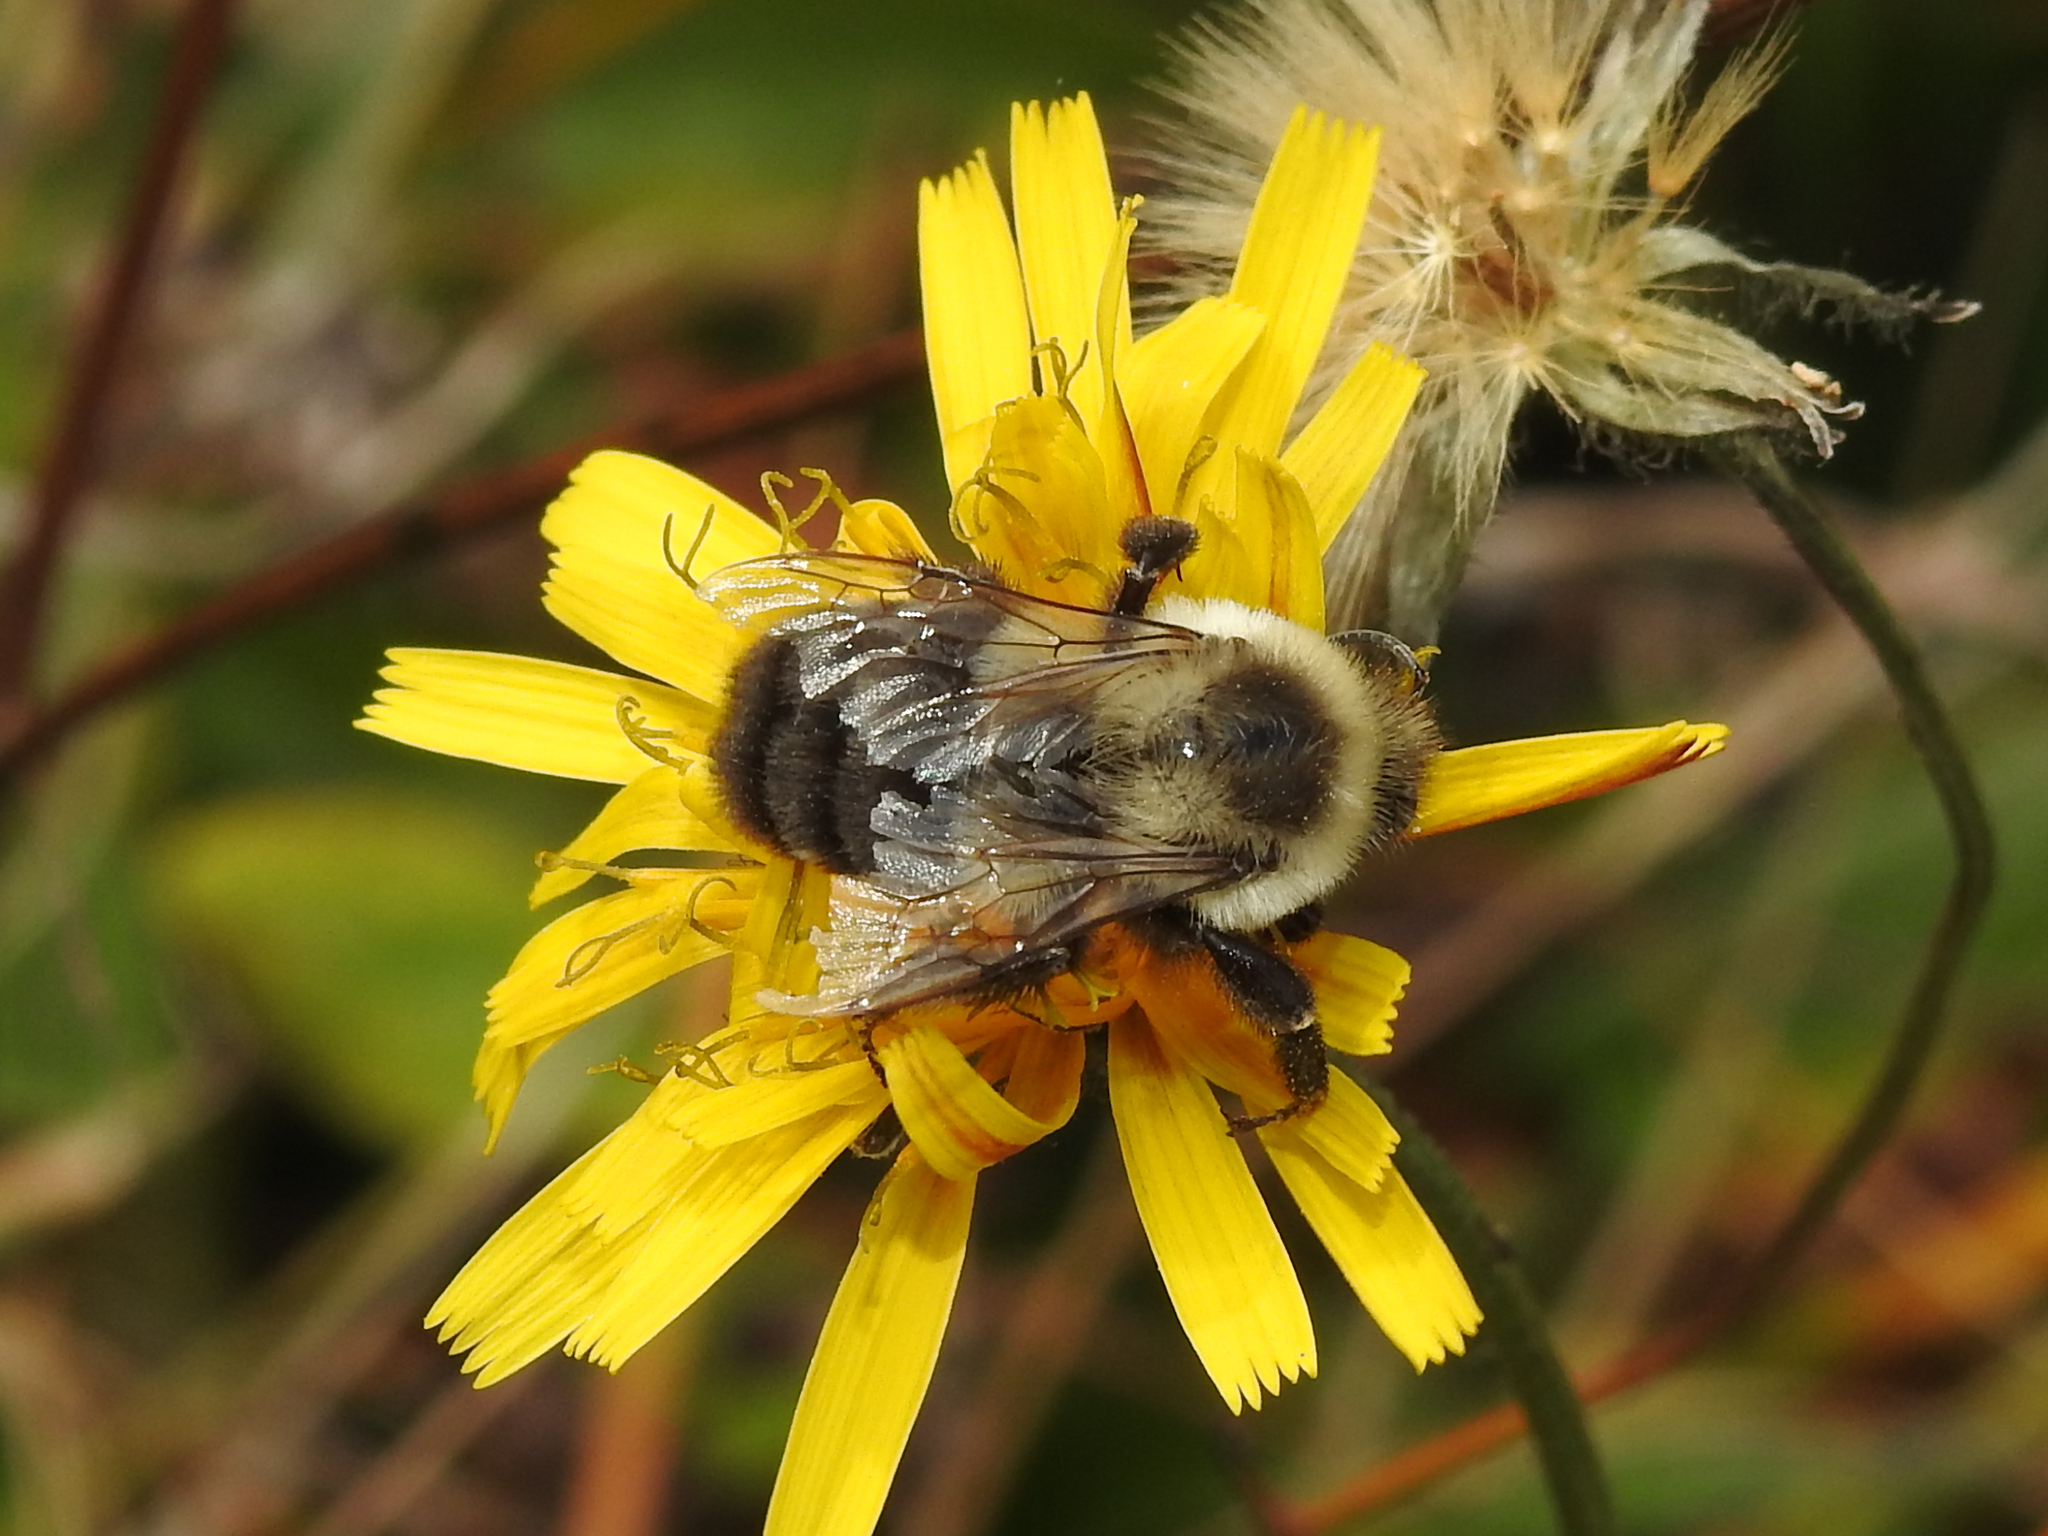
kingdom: Animalia
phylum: Arthropoda
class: Insecta
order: Hymenoptera
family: Apidae
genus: Bombus
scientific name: Bombus impatiens
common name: Common eastern bumble bee
